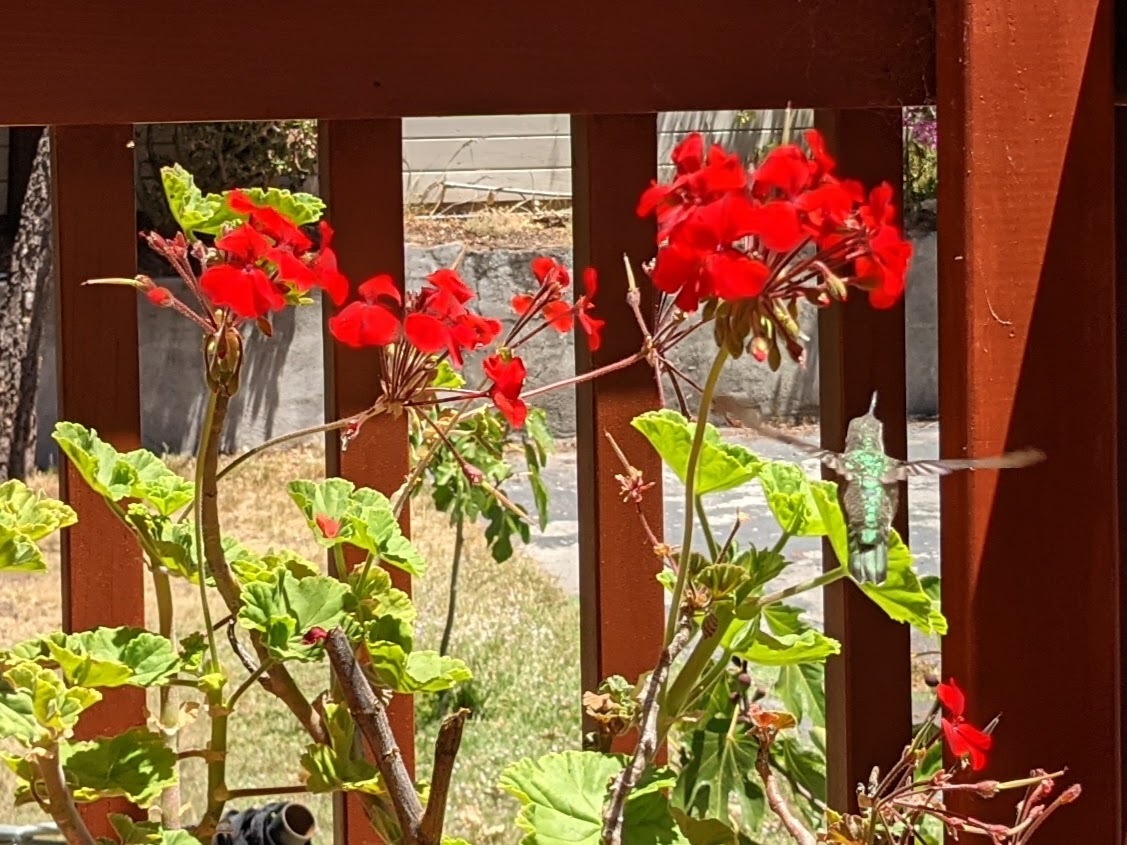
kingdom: Animalia
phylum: Chordata
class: Aves
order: Apodiformes
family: Trochilidae
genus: Calypte
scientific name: Calypte anna
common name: Anna's hummingbird
